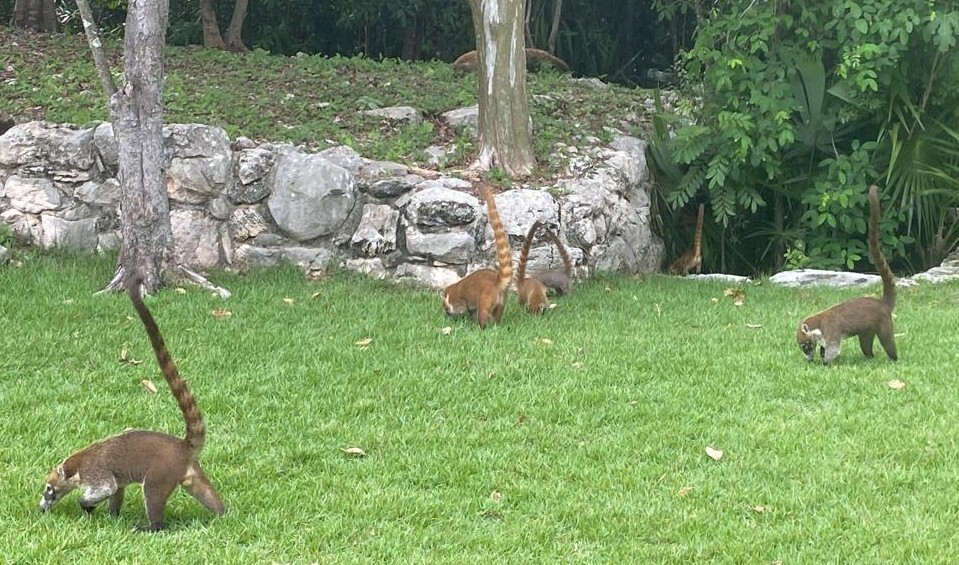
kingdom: Animalia
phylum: Chordata
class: Mammalia
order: Carnivora
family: Procyonidae
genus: Nasua
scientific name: Nasua narica
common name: White-nosed coati
